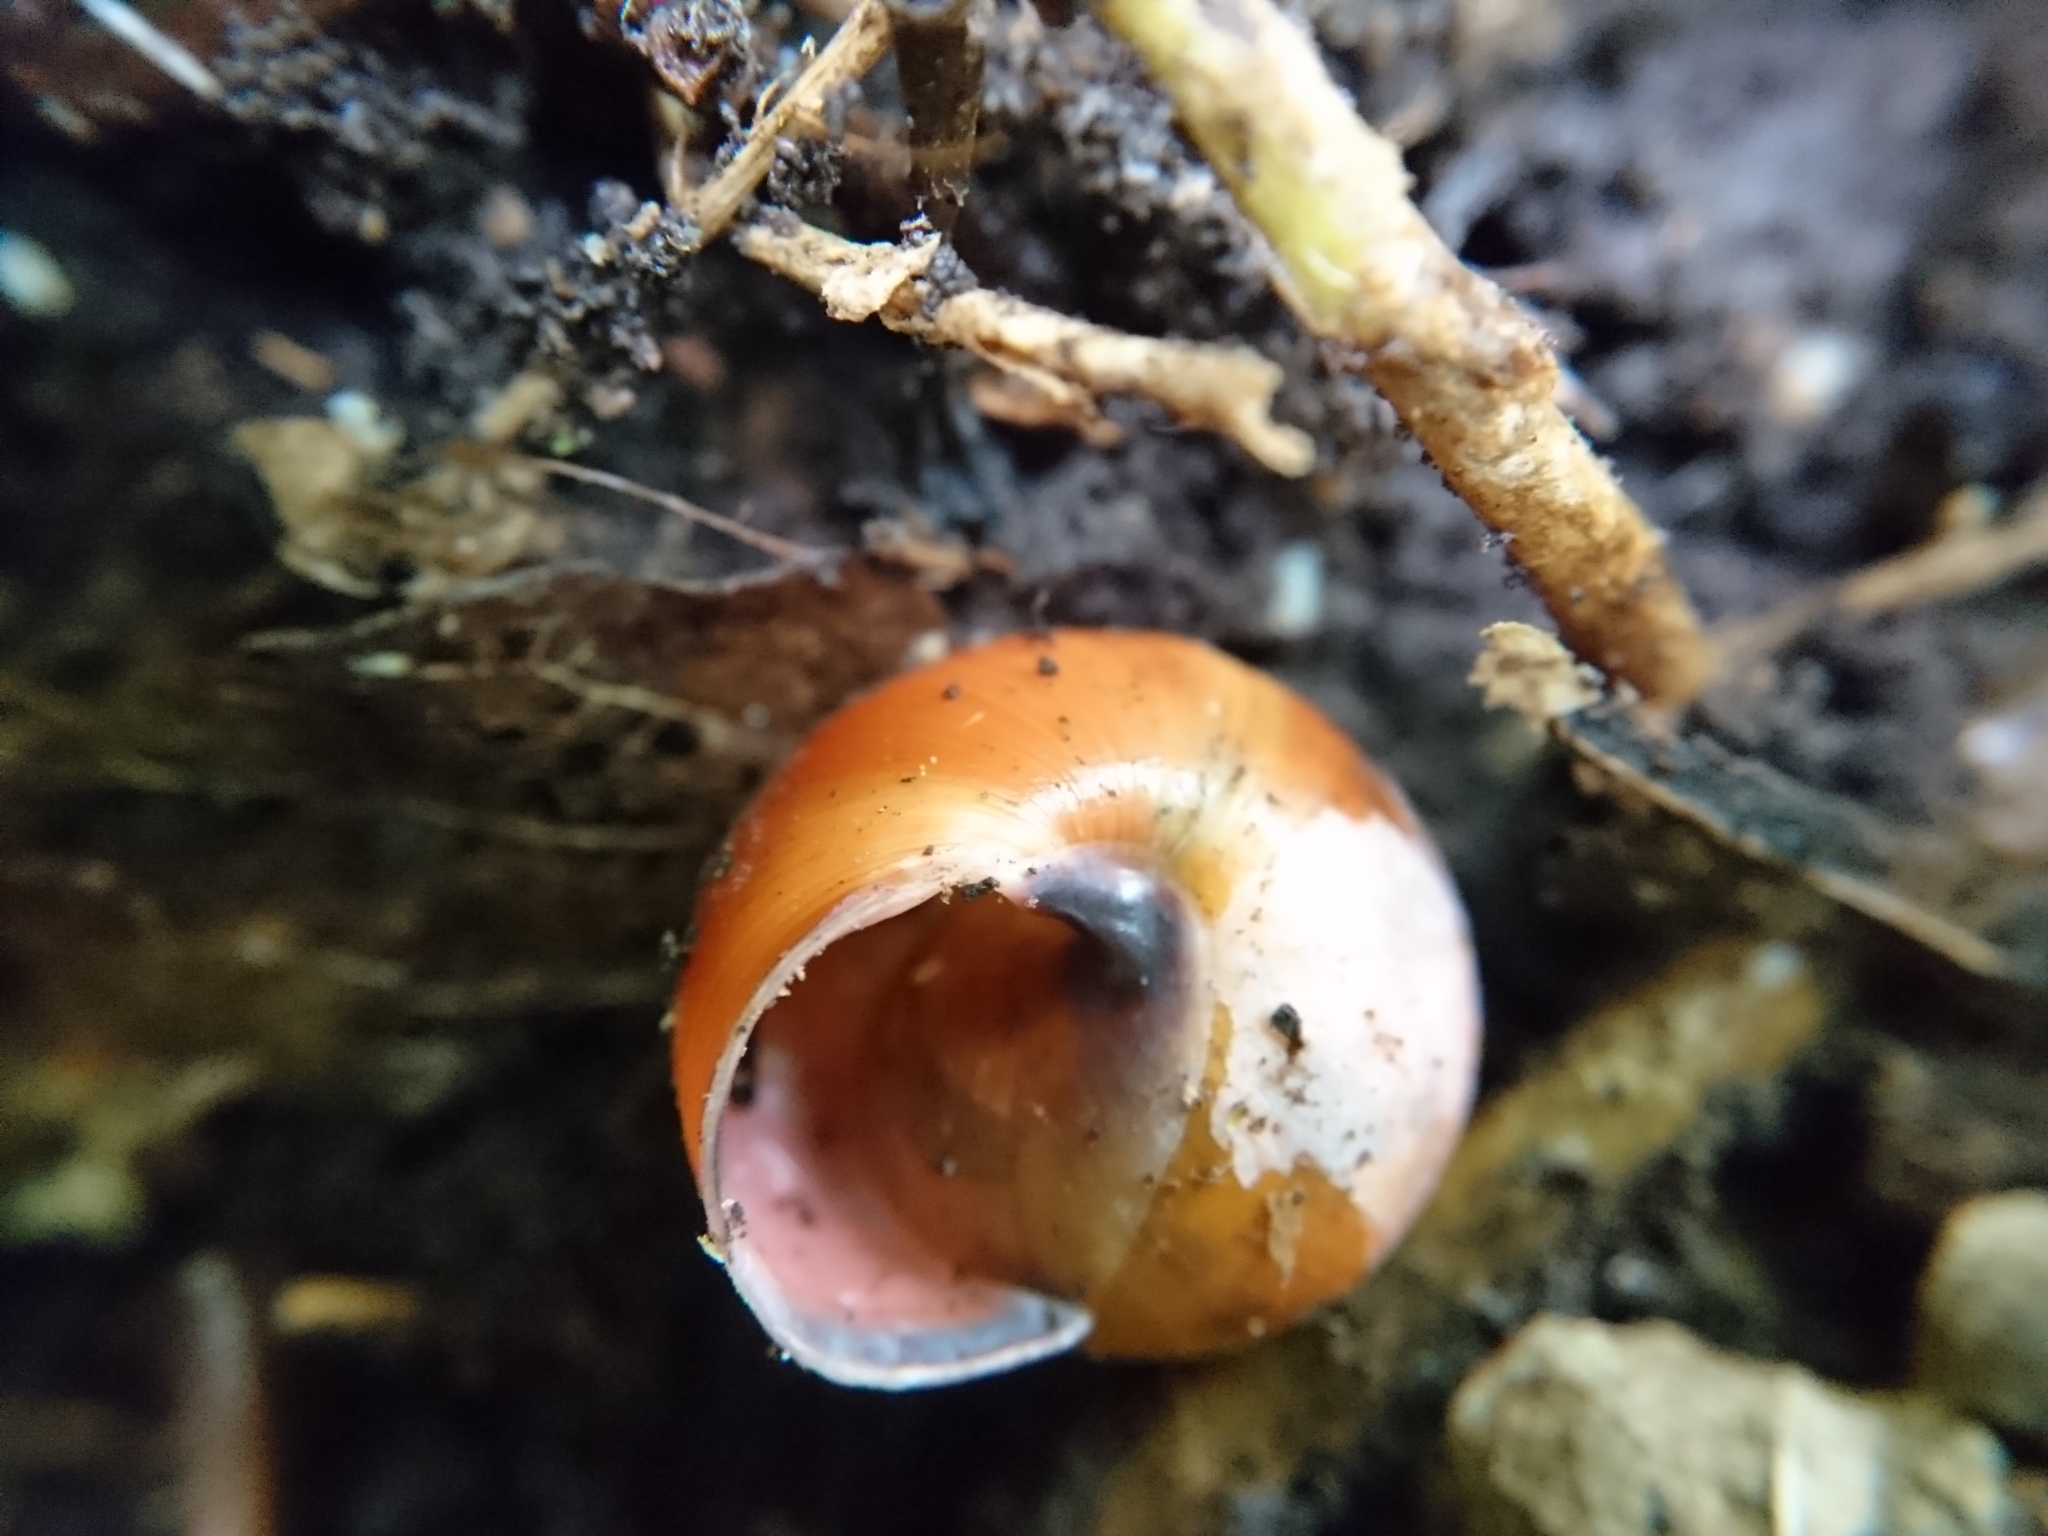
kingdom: Animalia
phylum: Mollusca
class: Gastropoda
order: Stylommatophora
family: Helicidae
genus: Cepaea
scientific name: Cepaea nemoralis
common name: Grovesnail
